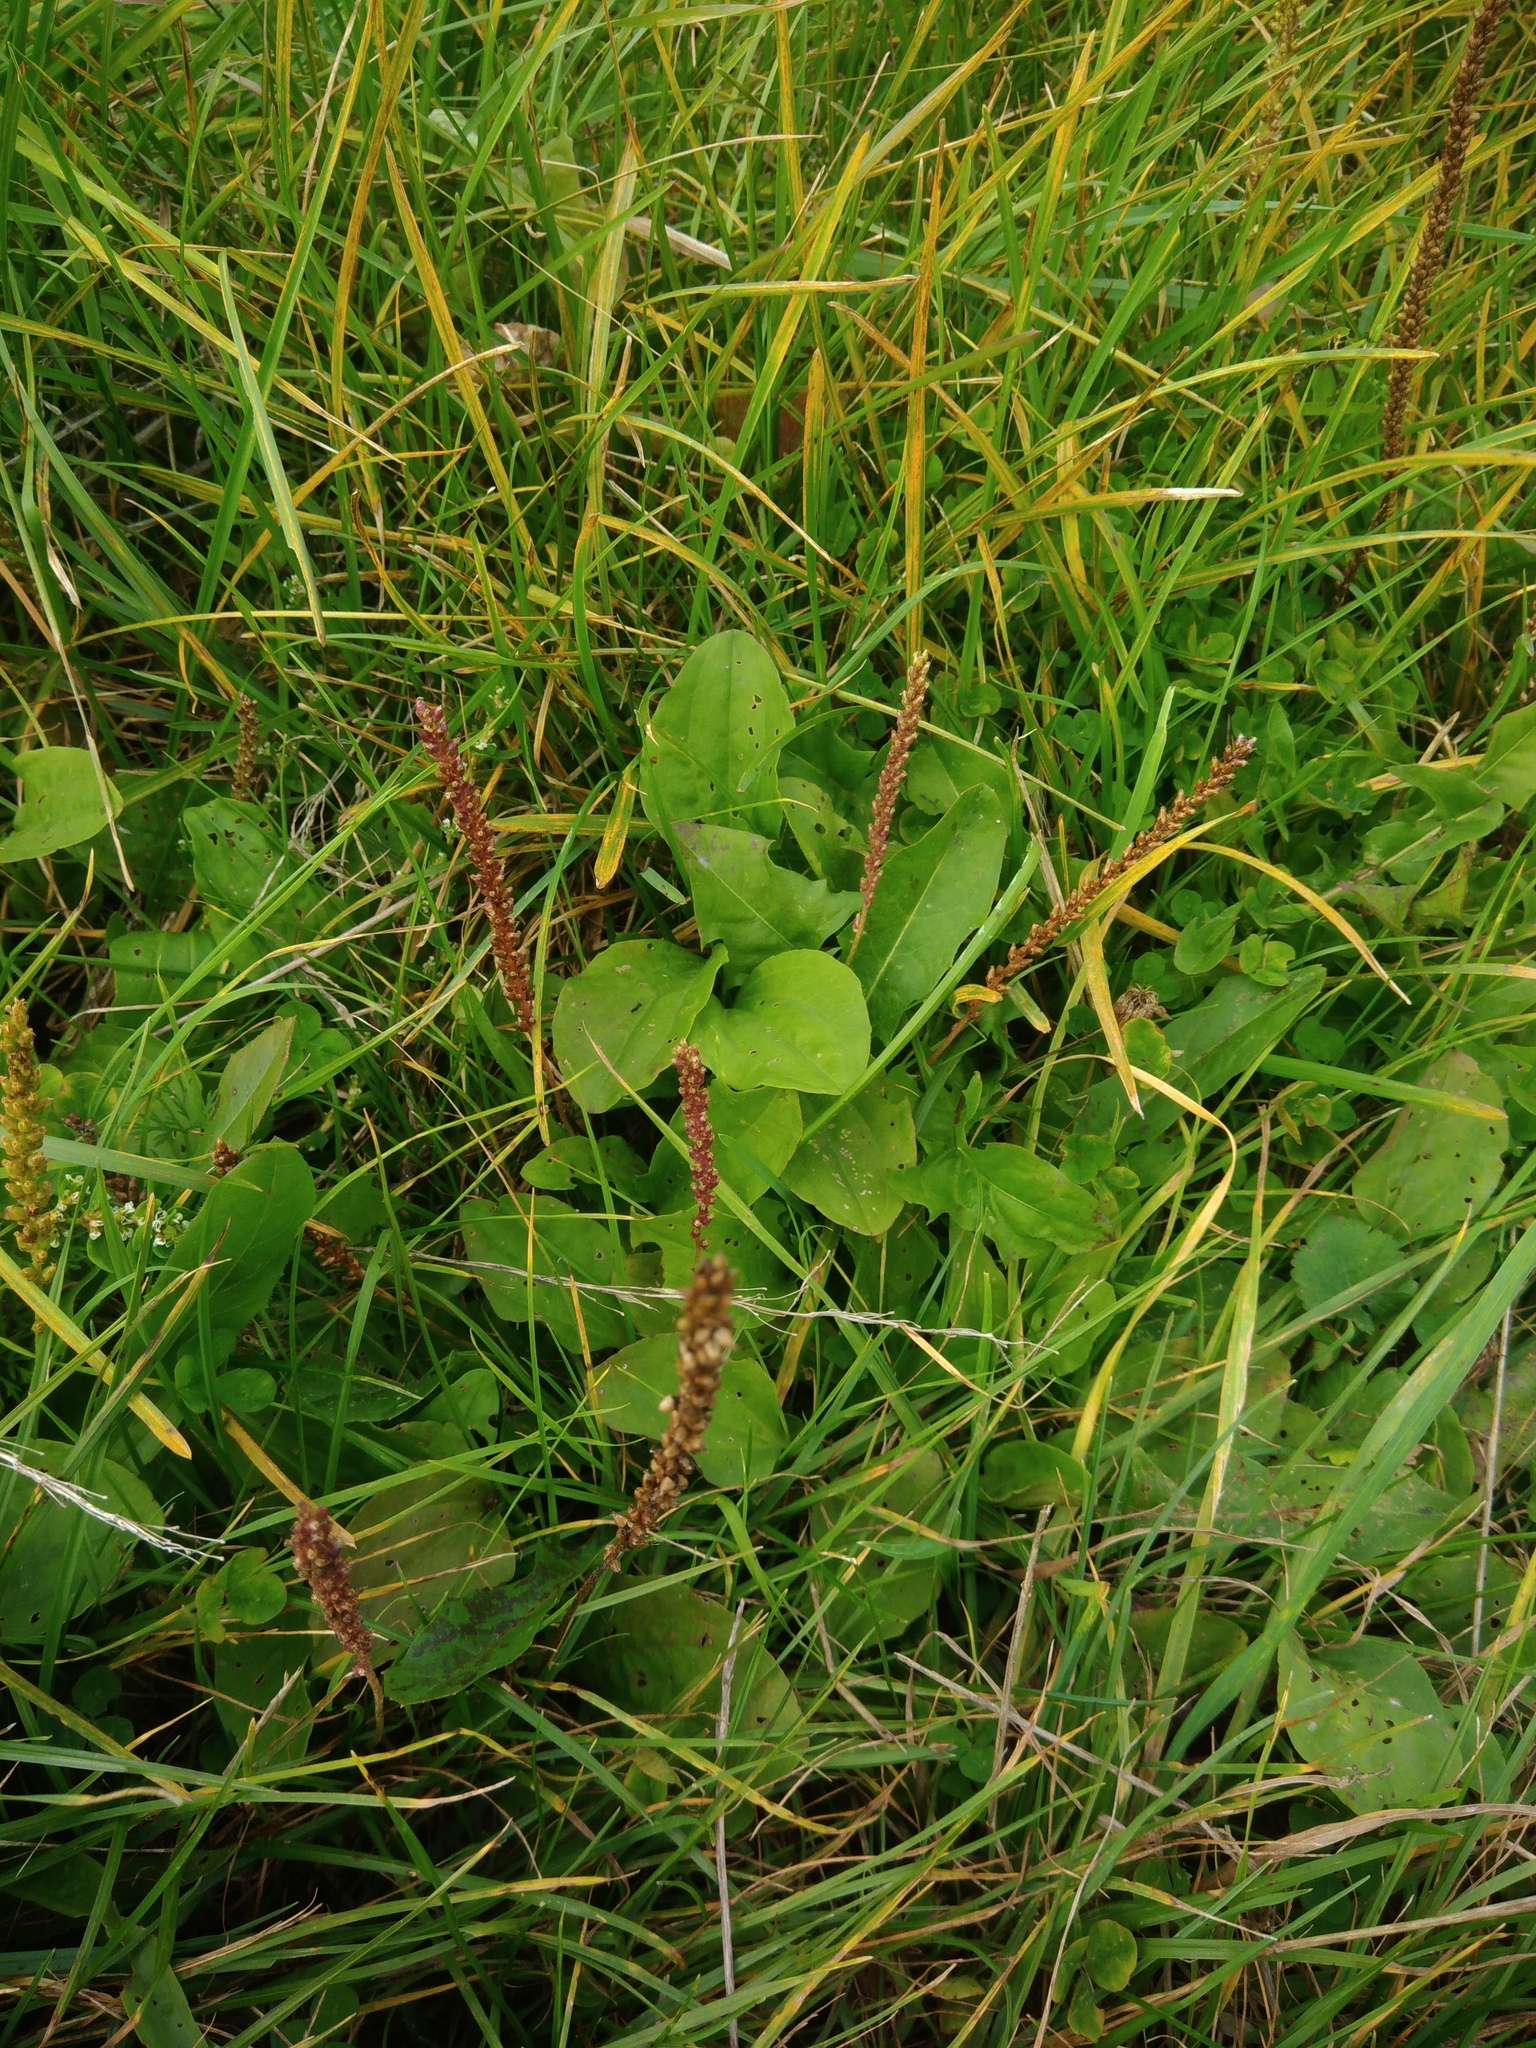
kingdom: Plantae
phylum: Tracheophyta
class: Magnoliopsida
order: Lamiales
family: Plantaginaceae
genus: Plantago
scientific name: Plantago major
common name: Common plantain
